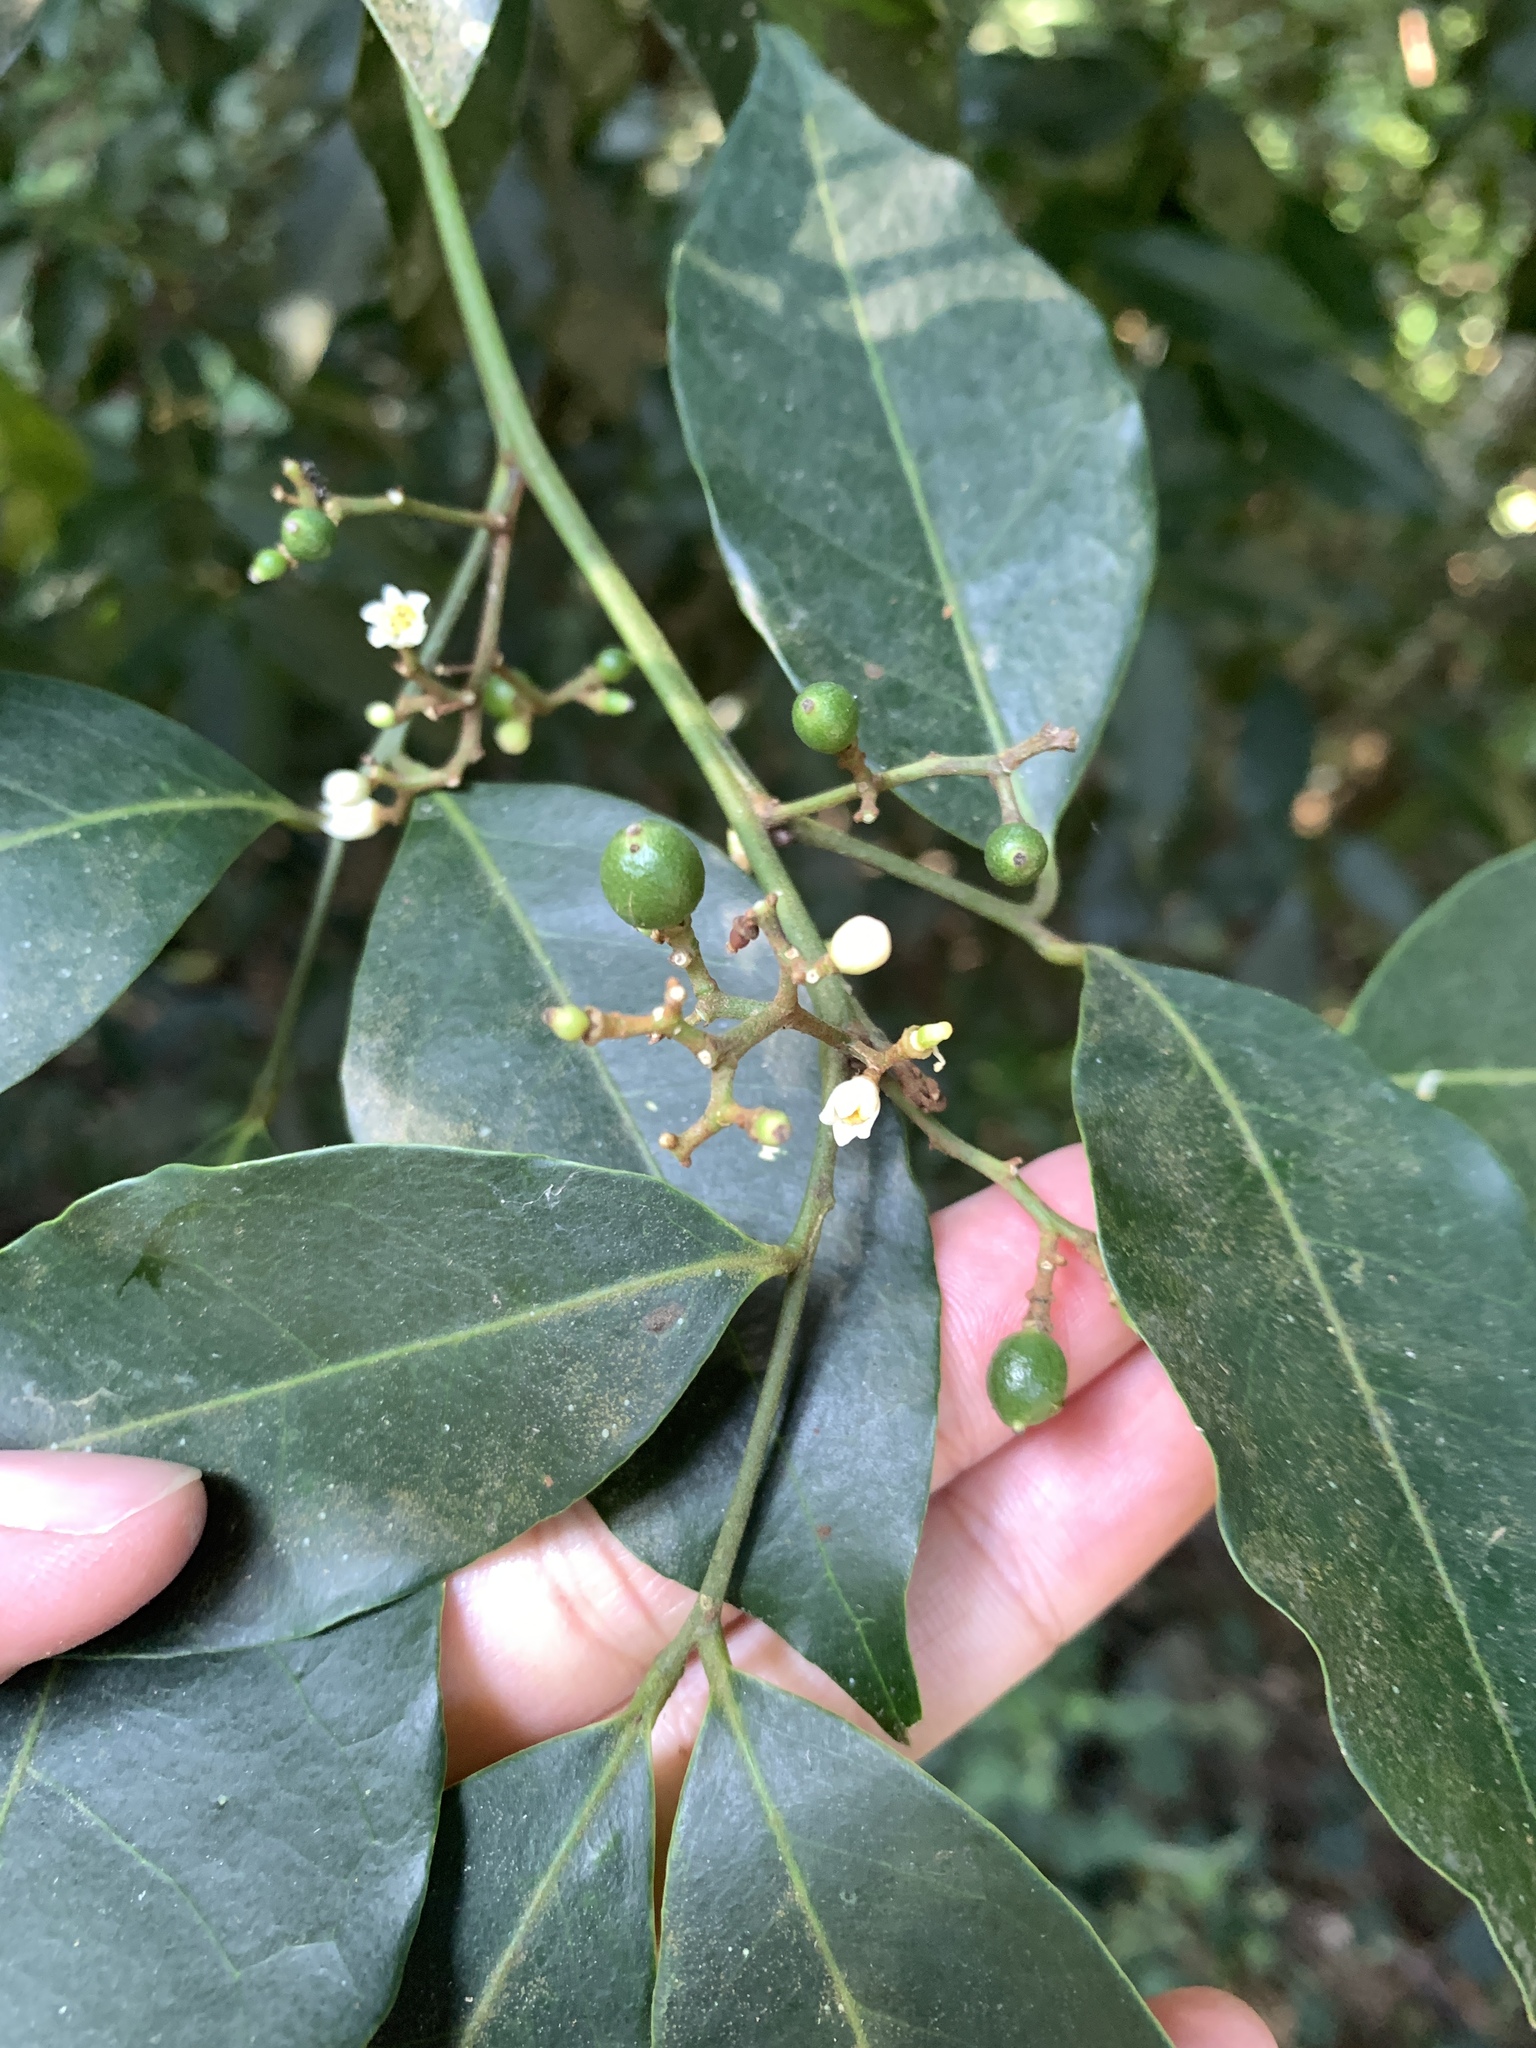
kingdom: Plantae
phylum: Tracheophyta
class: Magnoliopsida
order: Sapindales
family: Rutaceae
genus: Glycosmis
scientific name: Glycosmis parviflora
